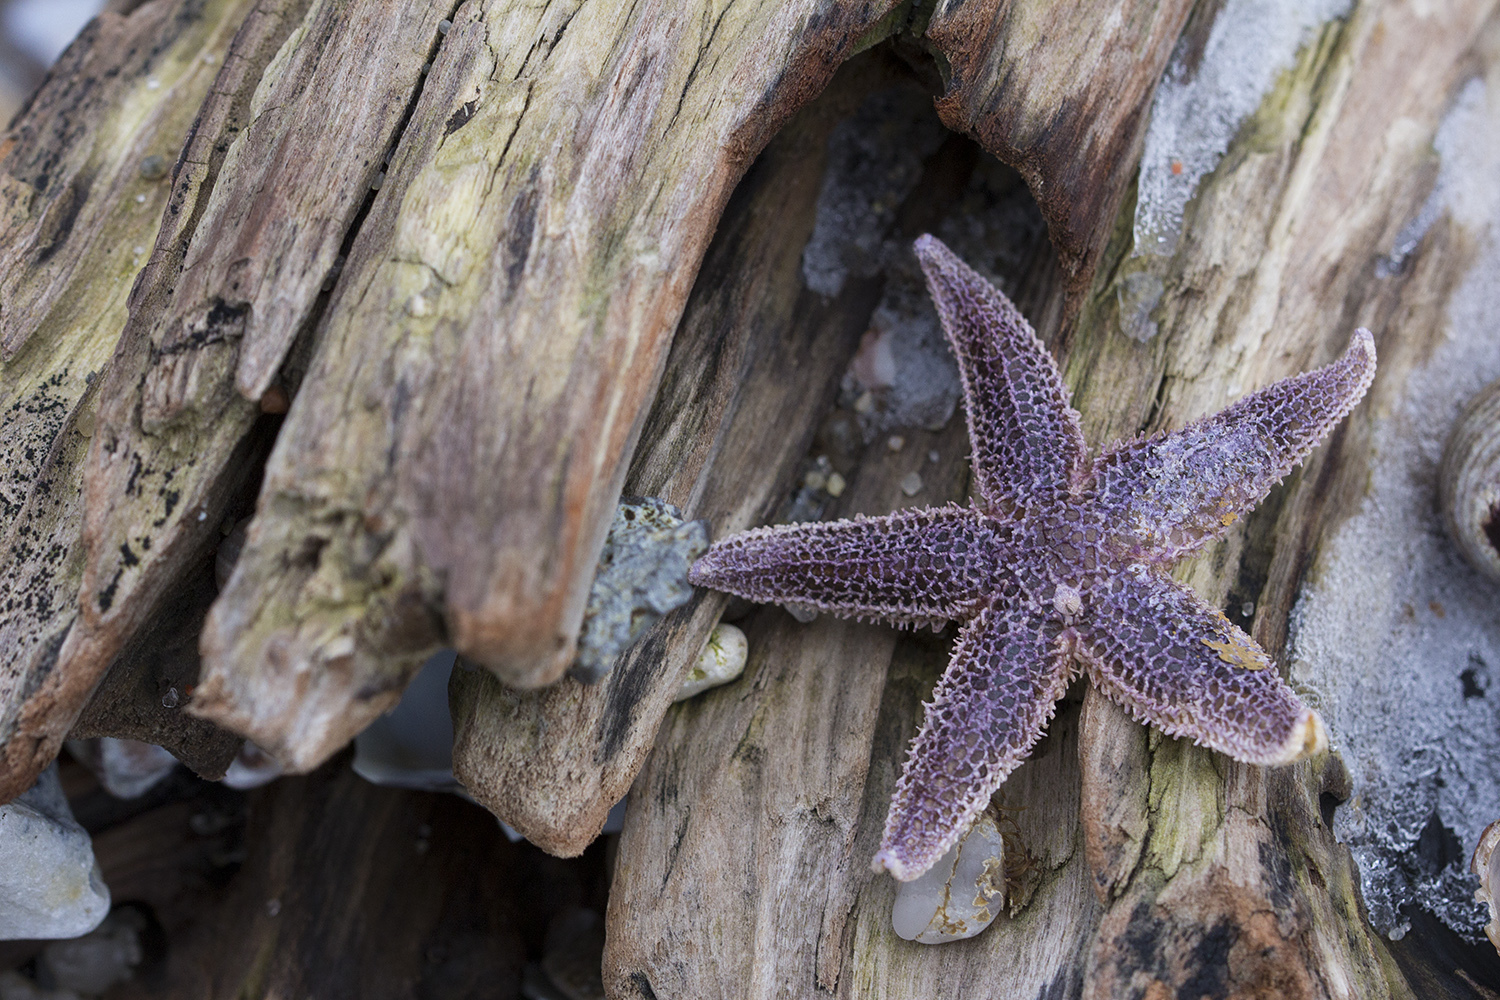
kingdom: Animalia
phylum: Echinodermata
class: Asteroidea
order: Forcipulatida
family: Asteriidae
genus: Asterias
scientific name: Asterias rubens
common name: Common starfish
